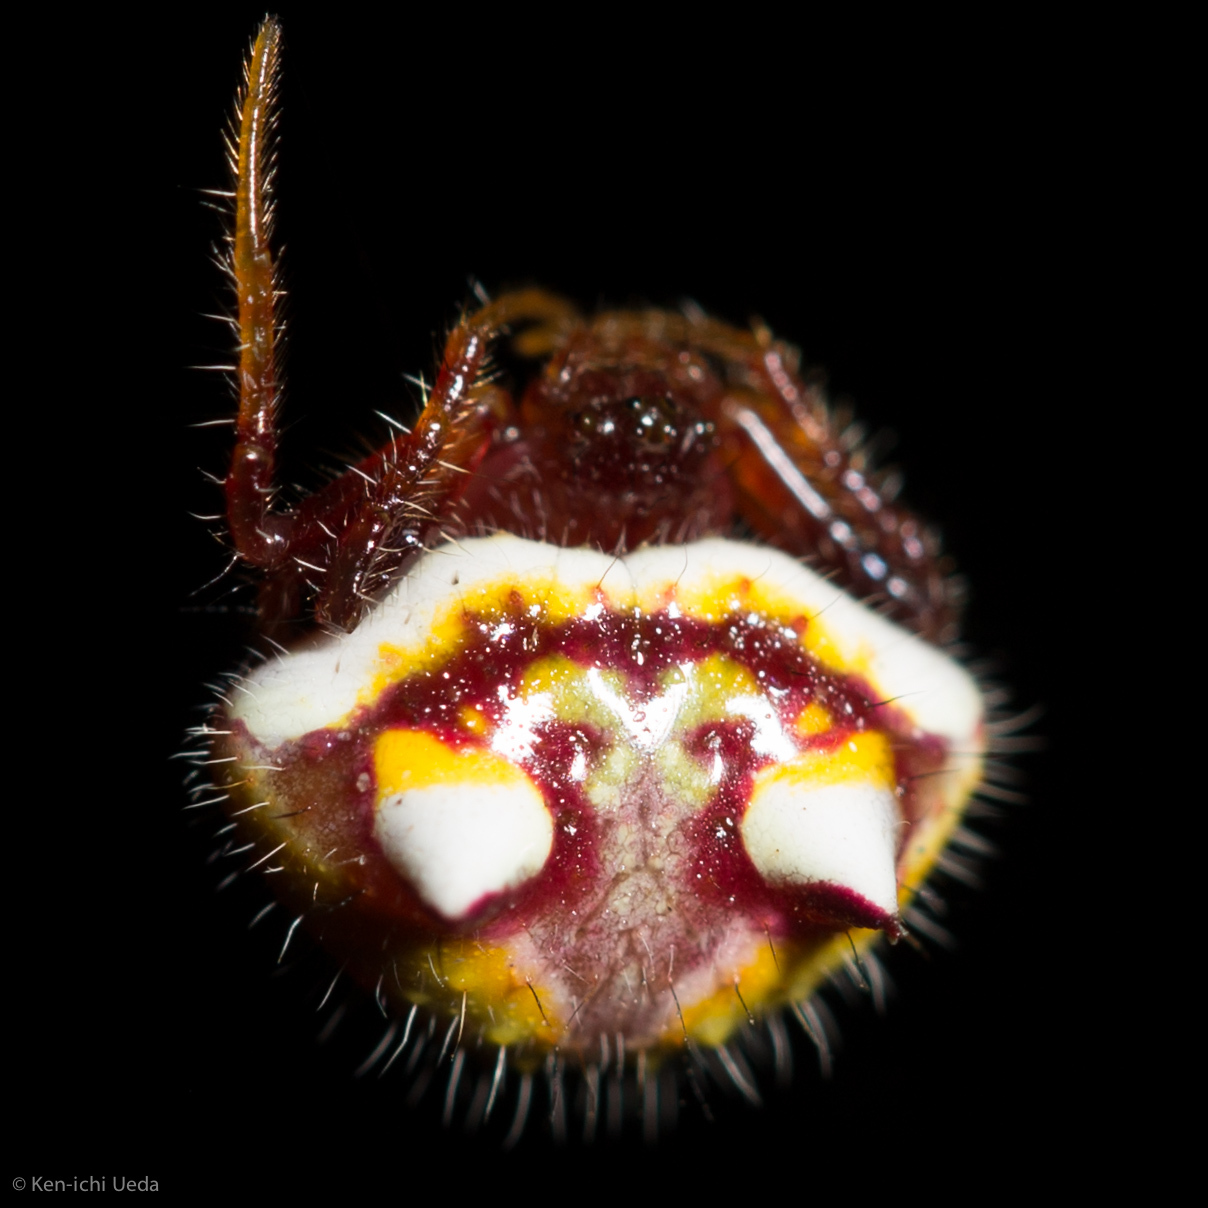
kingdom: Animalia
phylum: Arthropoda
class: Arachnida
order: Araneae
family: Araneidae
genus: Poecilopachys
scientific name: Poecilopachys australasia
